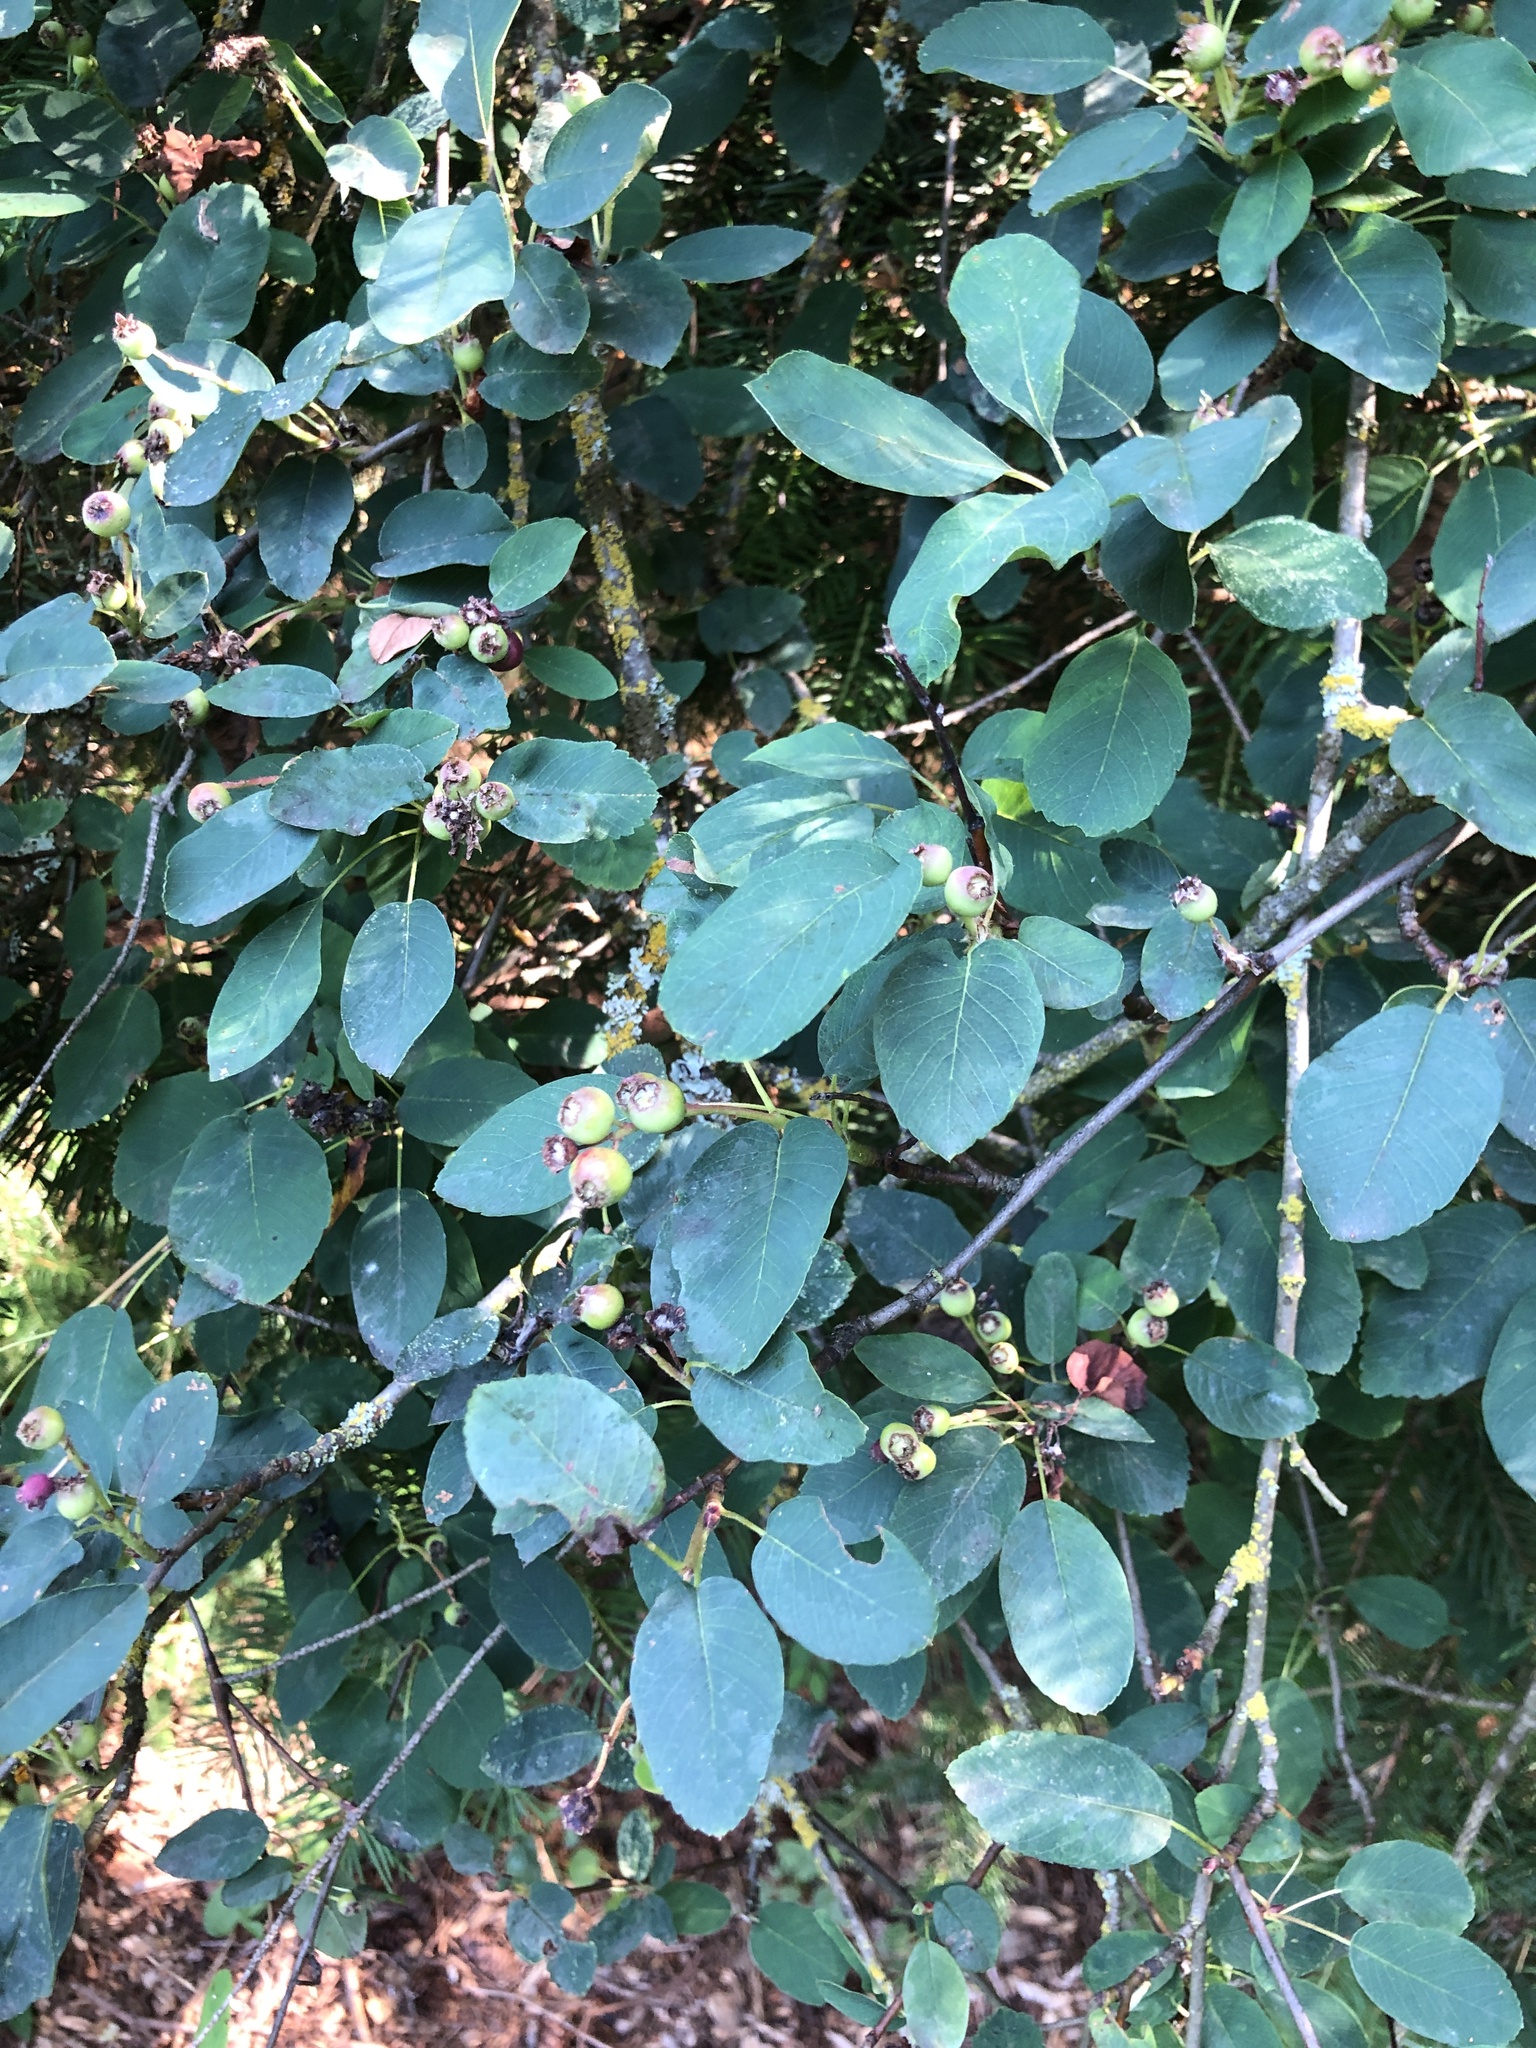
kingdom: Plantae
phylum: Tracheophyta
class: Magnoliopsida
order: Rosales
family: Rosaceae
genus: Amelanchier
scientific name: Amelanchier alnifolia
